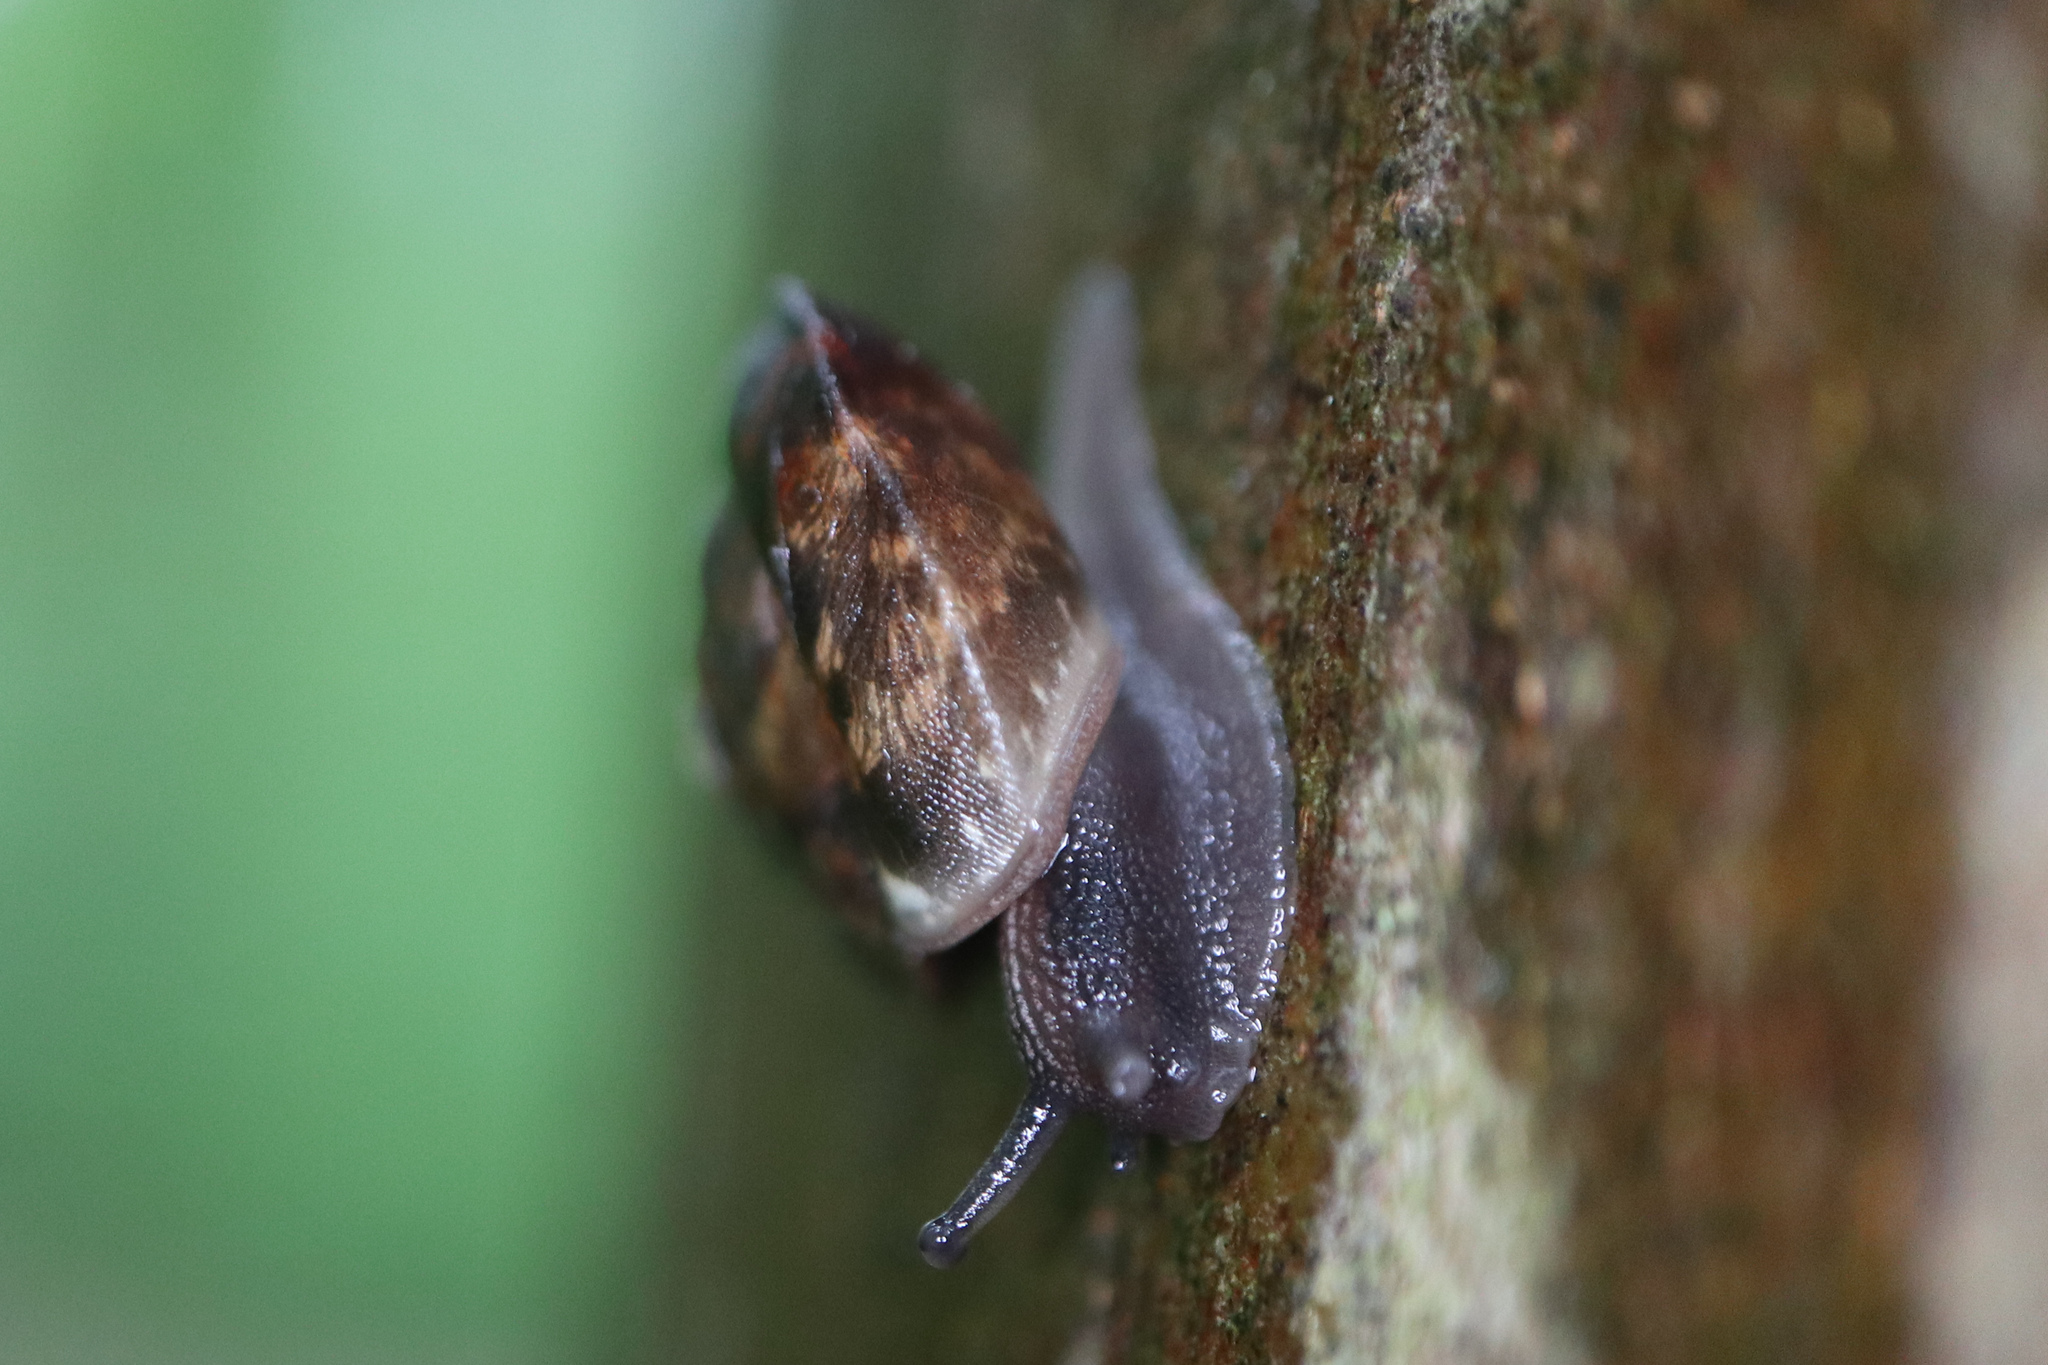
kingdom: Animalia
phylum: Mollusca
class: Gastropoda
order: Stylommatophora
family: Hygromiidae
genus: Hygromia
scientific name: Hygromia cinctella
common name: Girdled snail
